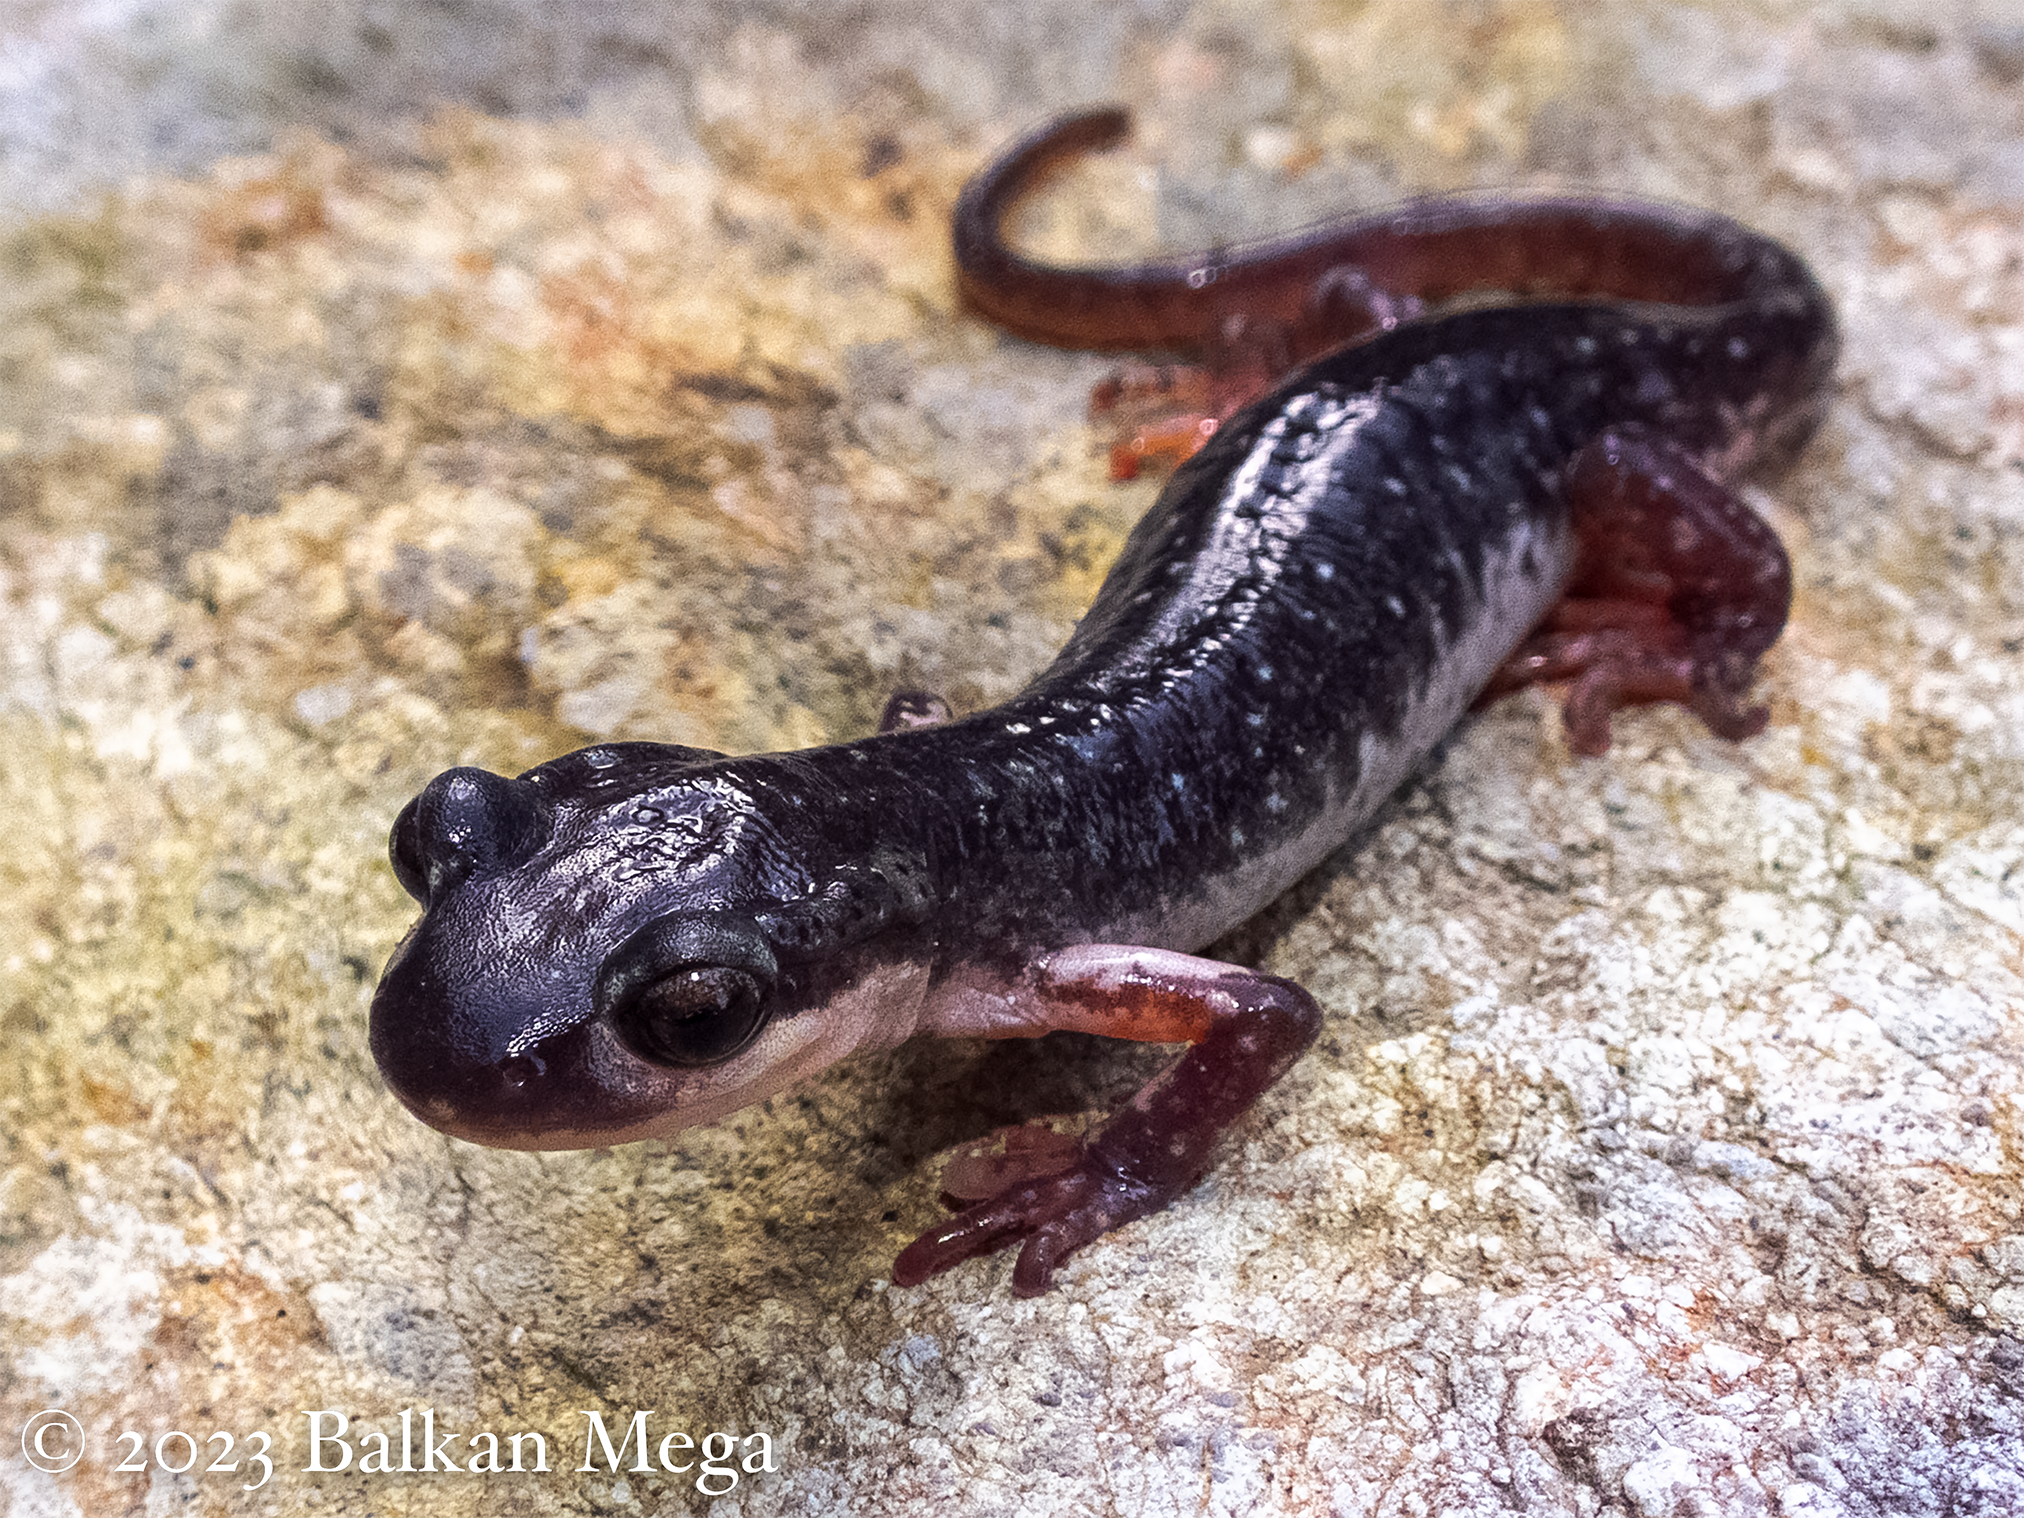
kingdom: Animalia
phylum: Chordata
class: Amphibia
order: Caudata
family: Salamandridae
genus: Lyciasalamandra
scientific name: Lyciasalamandra atifi
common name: Atif's salamander
